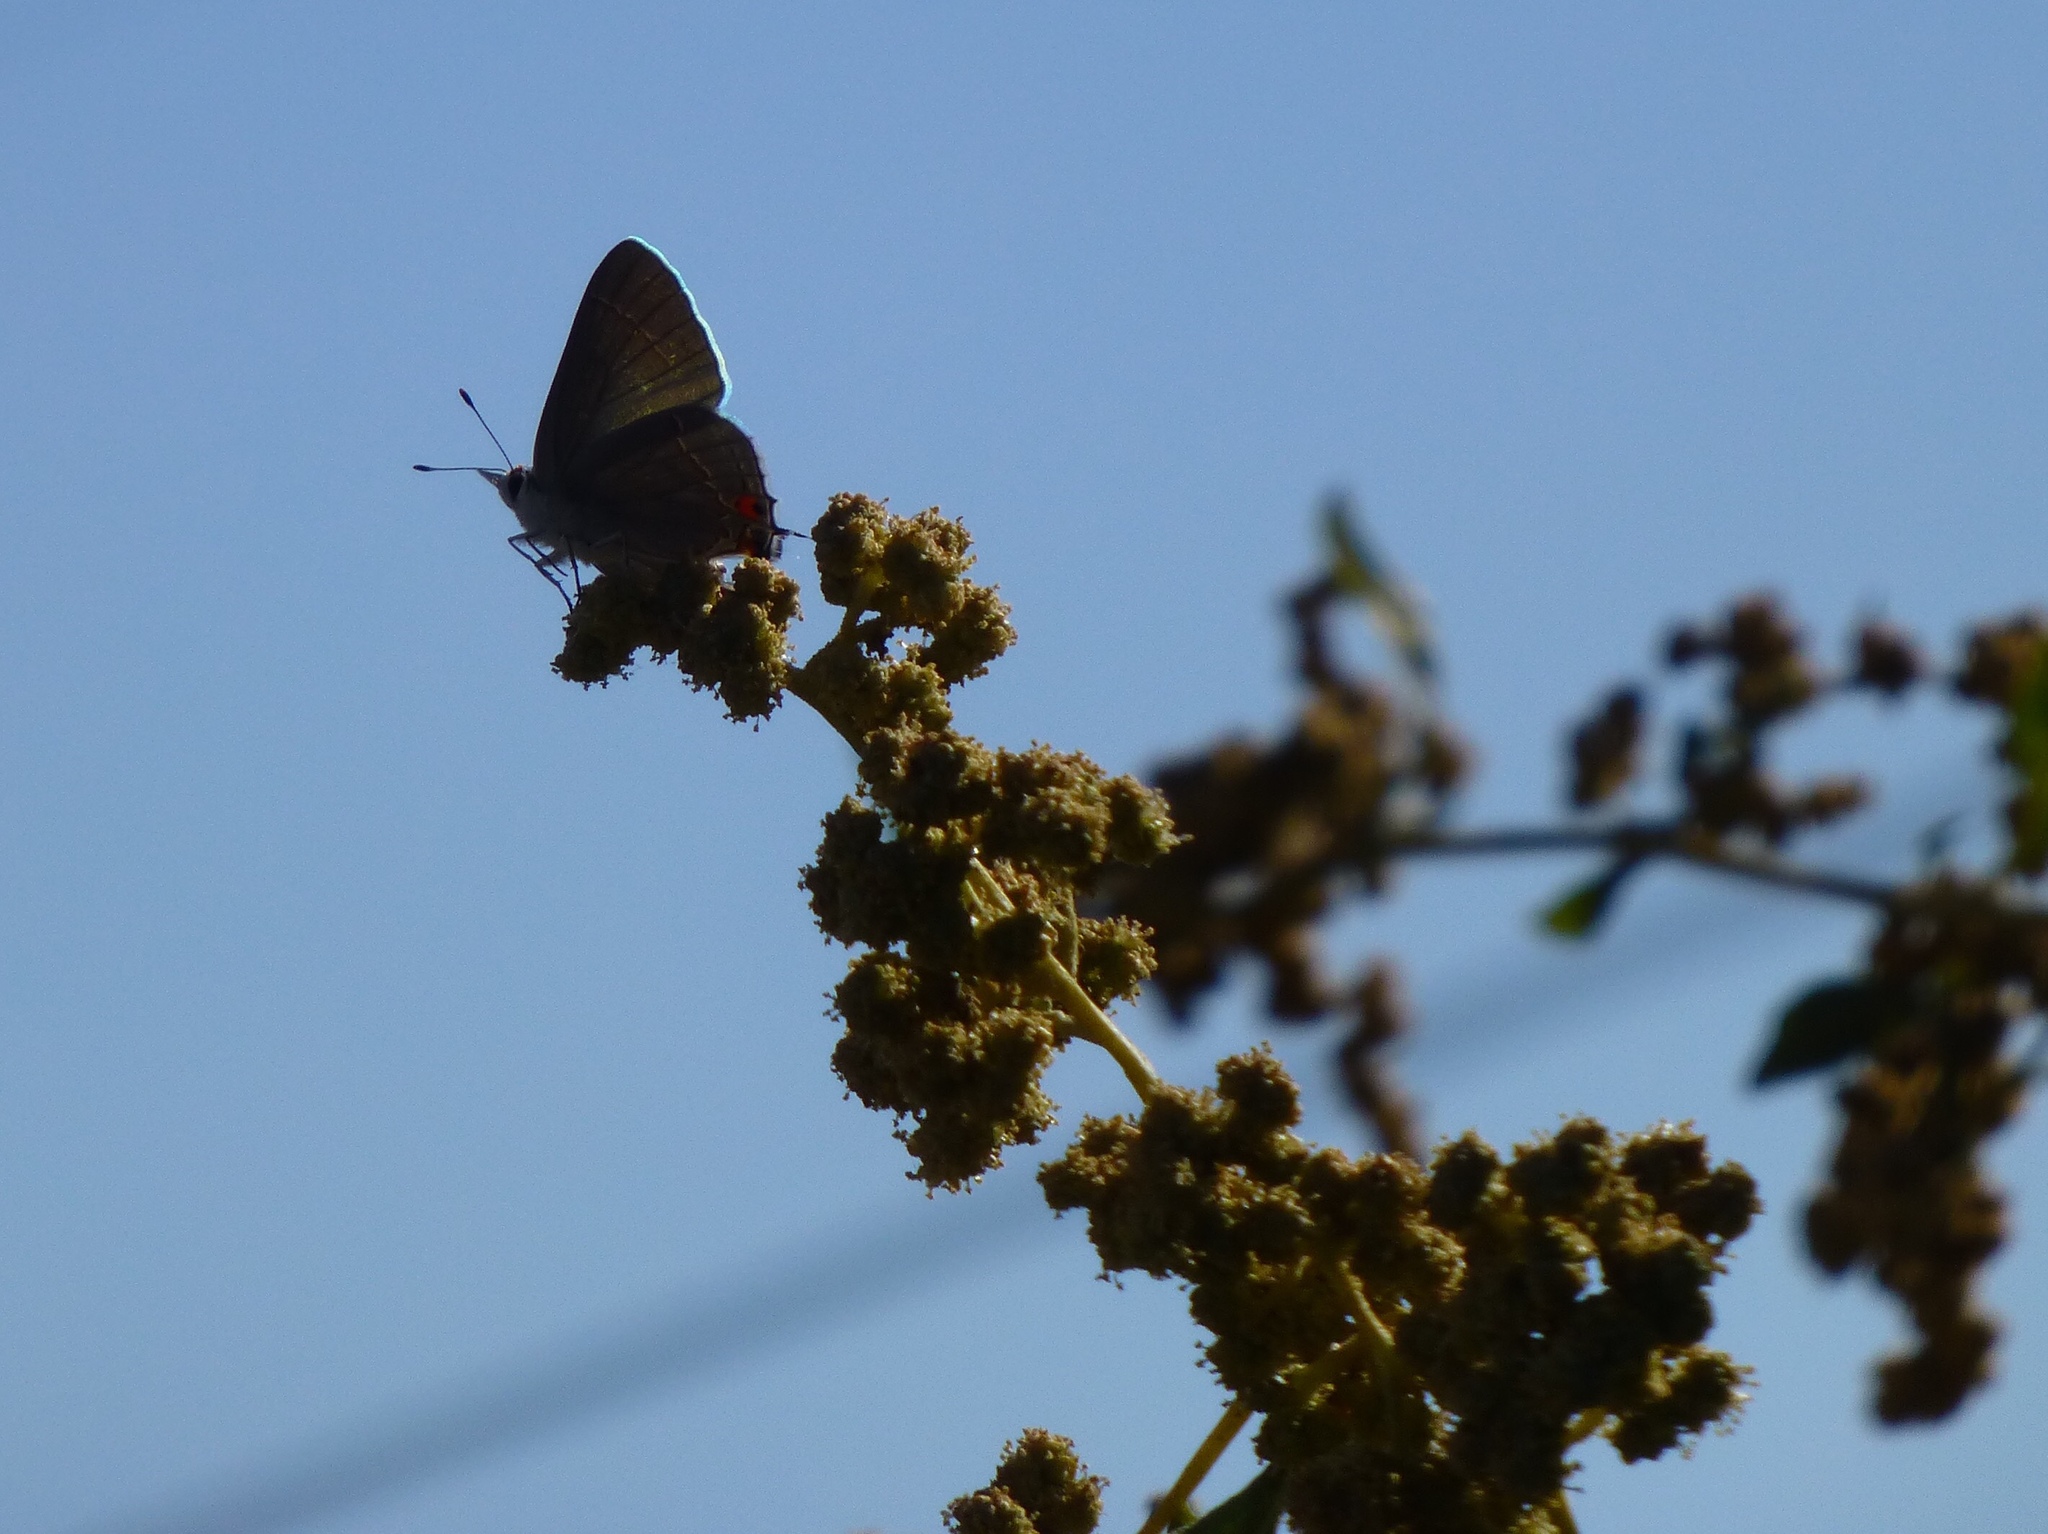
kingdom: Animalia
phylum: Arthropoda
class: Insecta
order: Lepidoptera
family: Lycaenidae
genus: Strymon
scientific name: Strymon melinus
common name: Gray hairstreak
